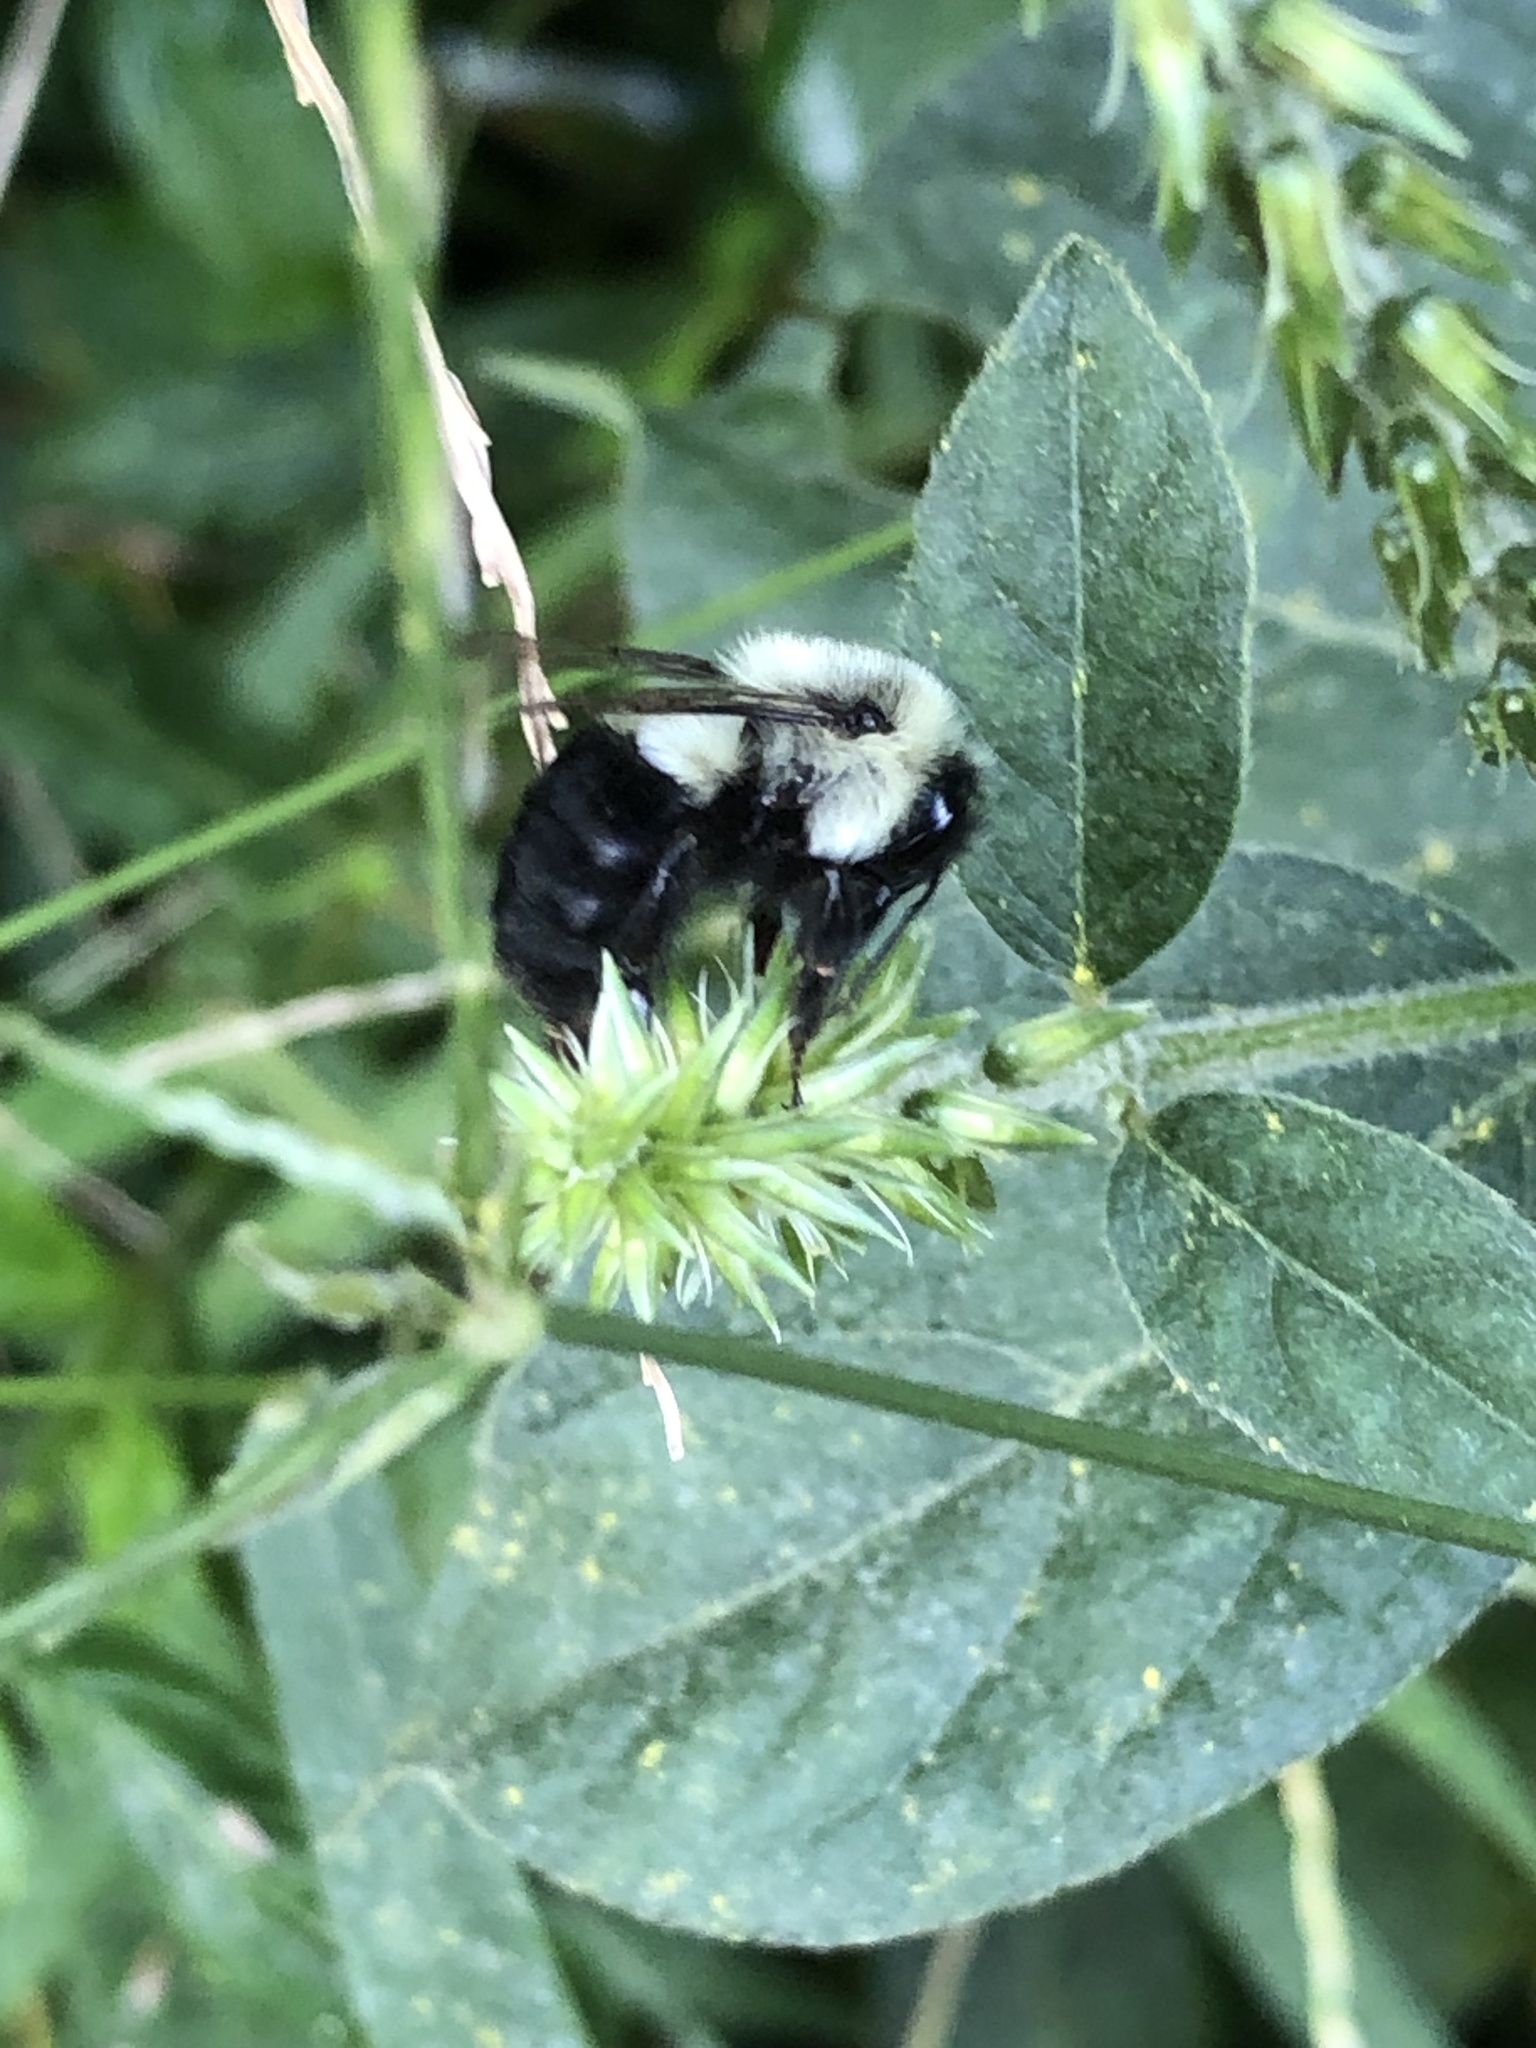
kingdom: Animalia
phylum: Arthropoda
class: Insecta
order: Hymenoptera
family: Apidae
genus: Bombus
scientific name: Bombus impatiens
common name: Common eastern bumble bee
